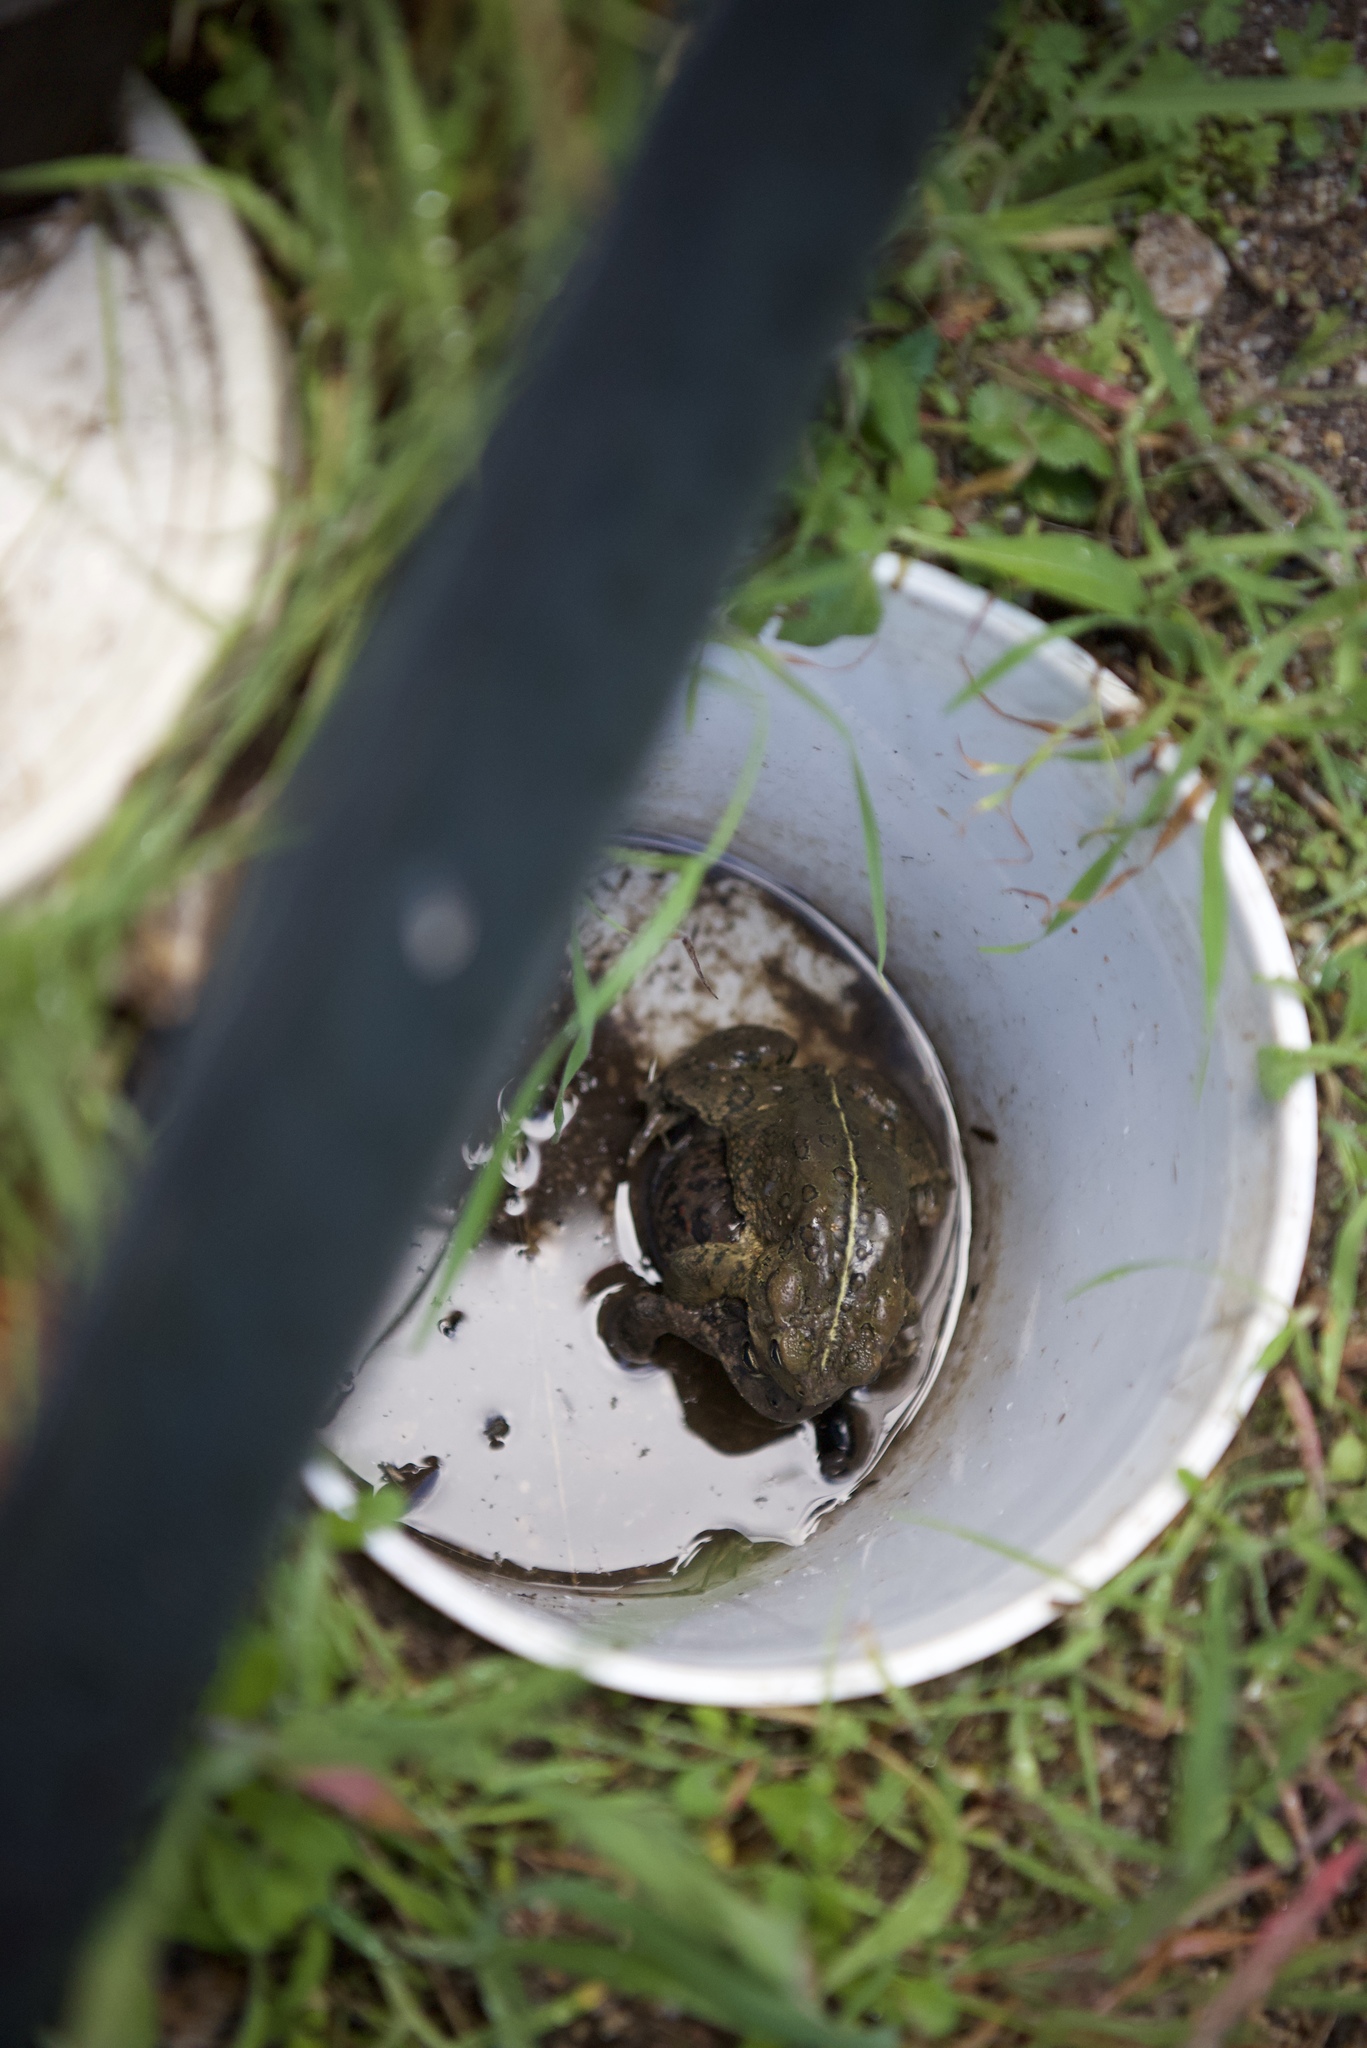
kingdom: Animalia
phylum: Chordata
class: Amphibia
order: Anura
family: Bufonidae
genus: Anaxyrus
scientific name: Anaxyrus boreas
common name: Western toad
